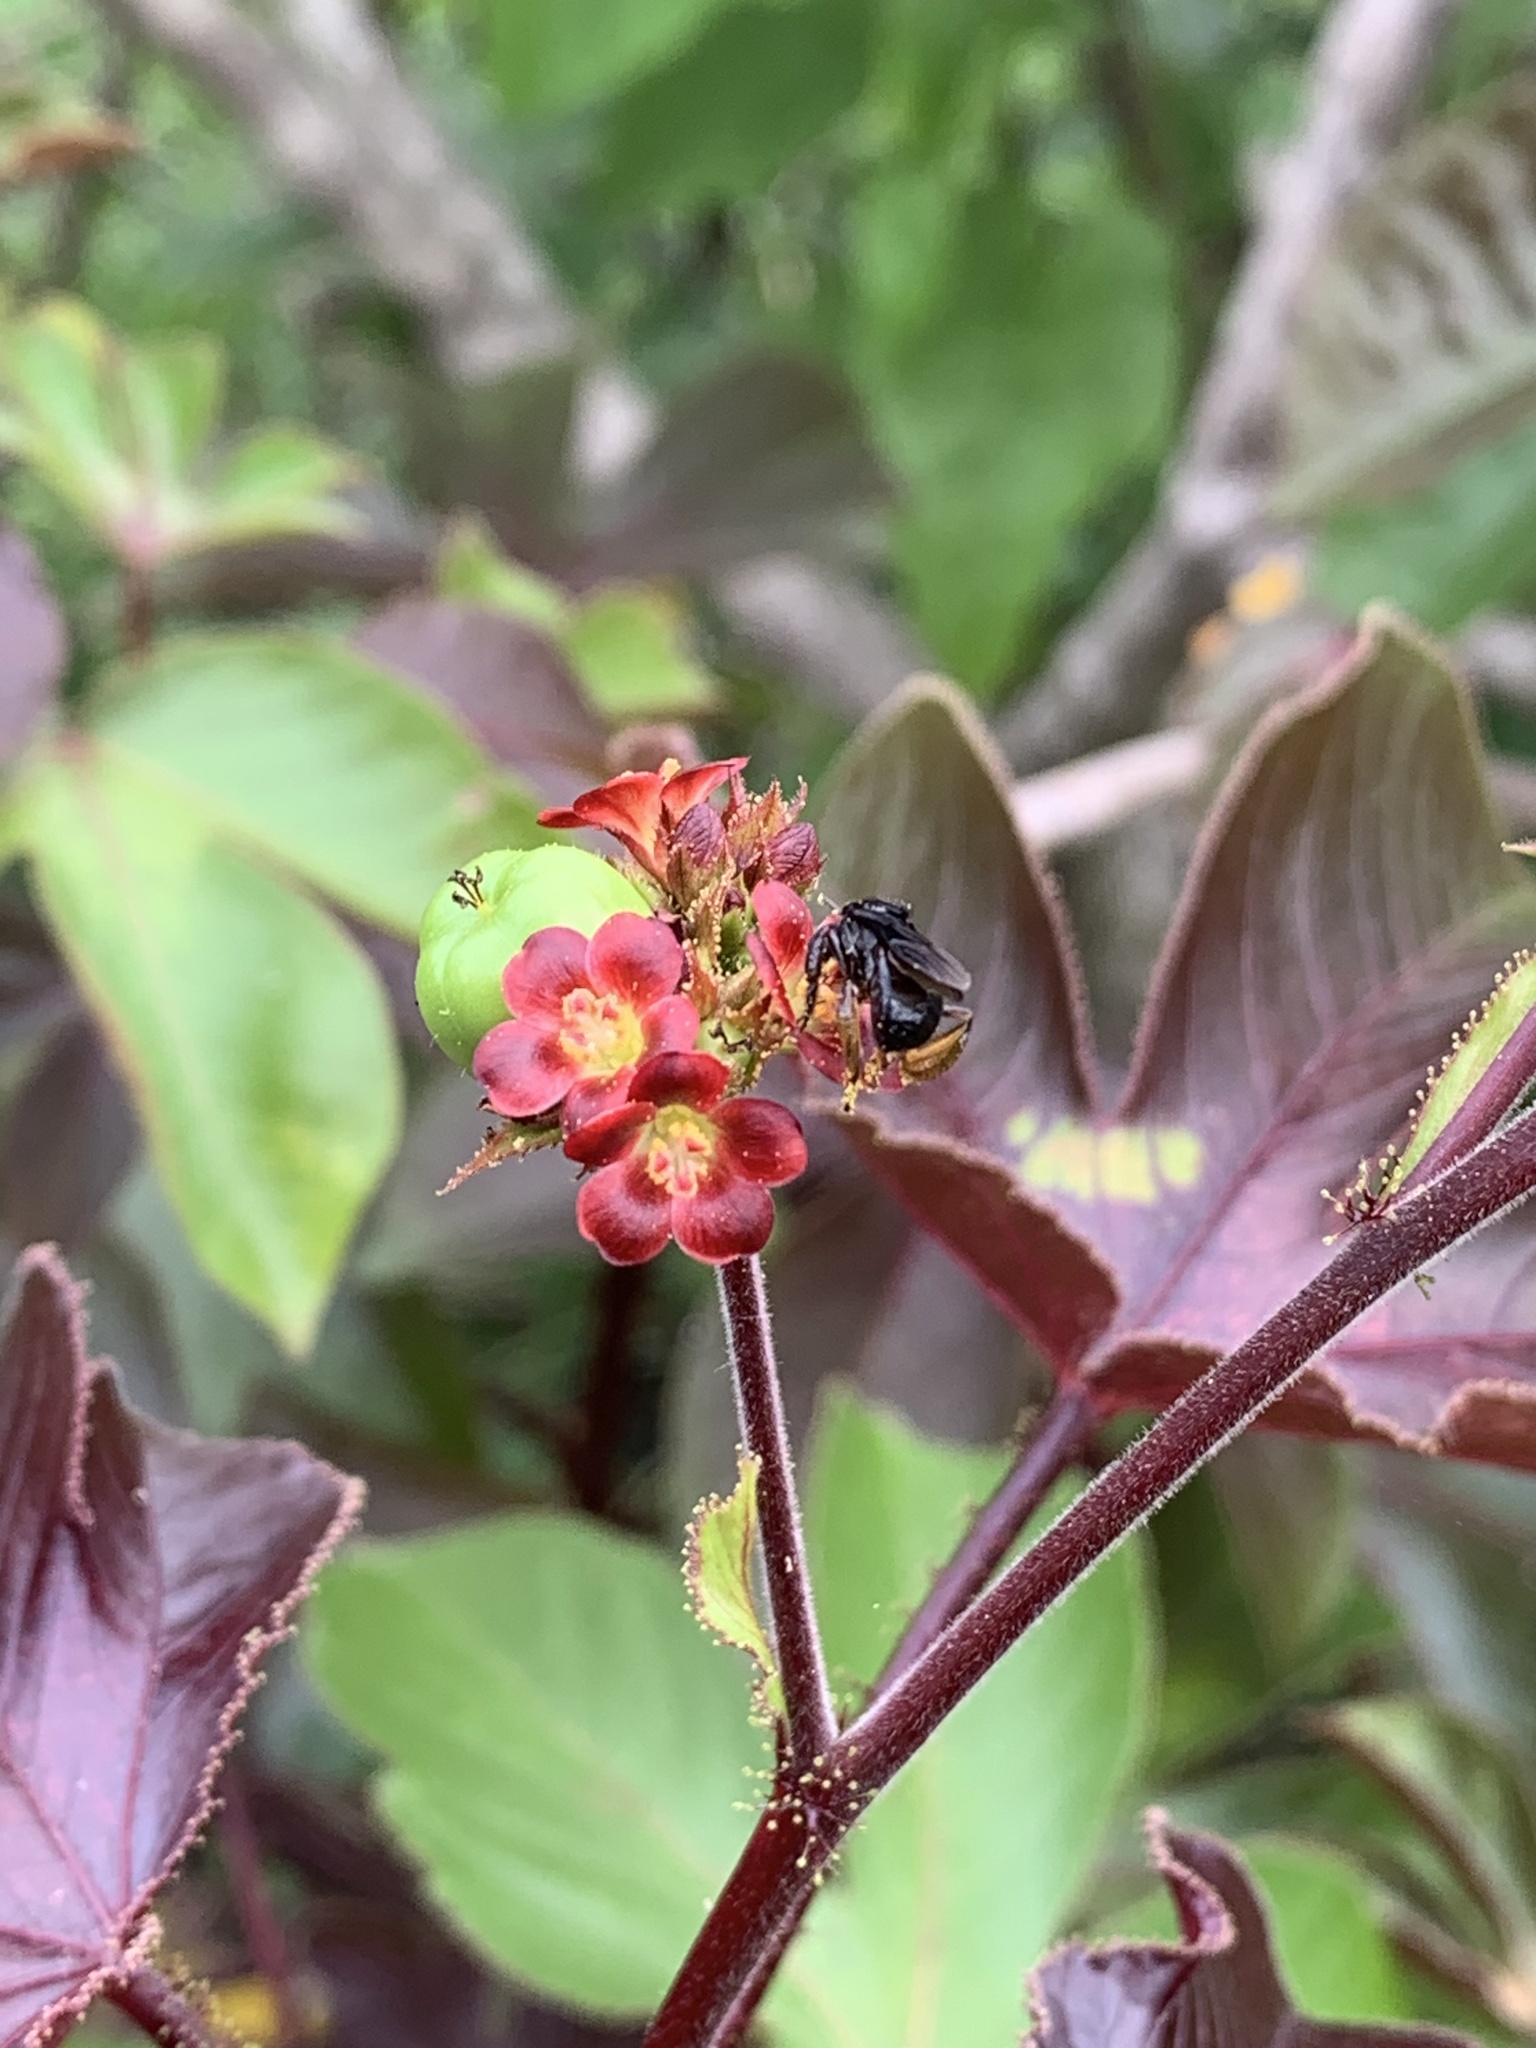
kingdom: Animalia
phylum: Arthropoda
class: Insecta
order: Hymenoptera
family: Apidae
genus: Trigona
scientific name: Trigona spinipes
